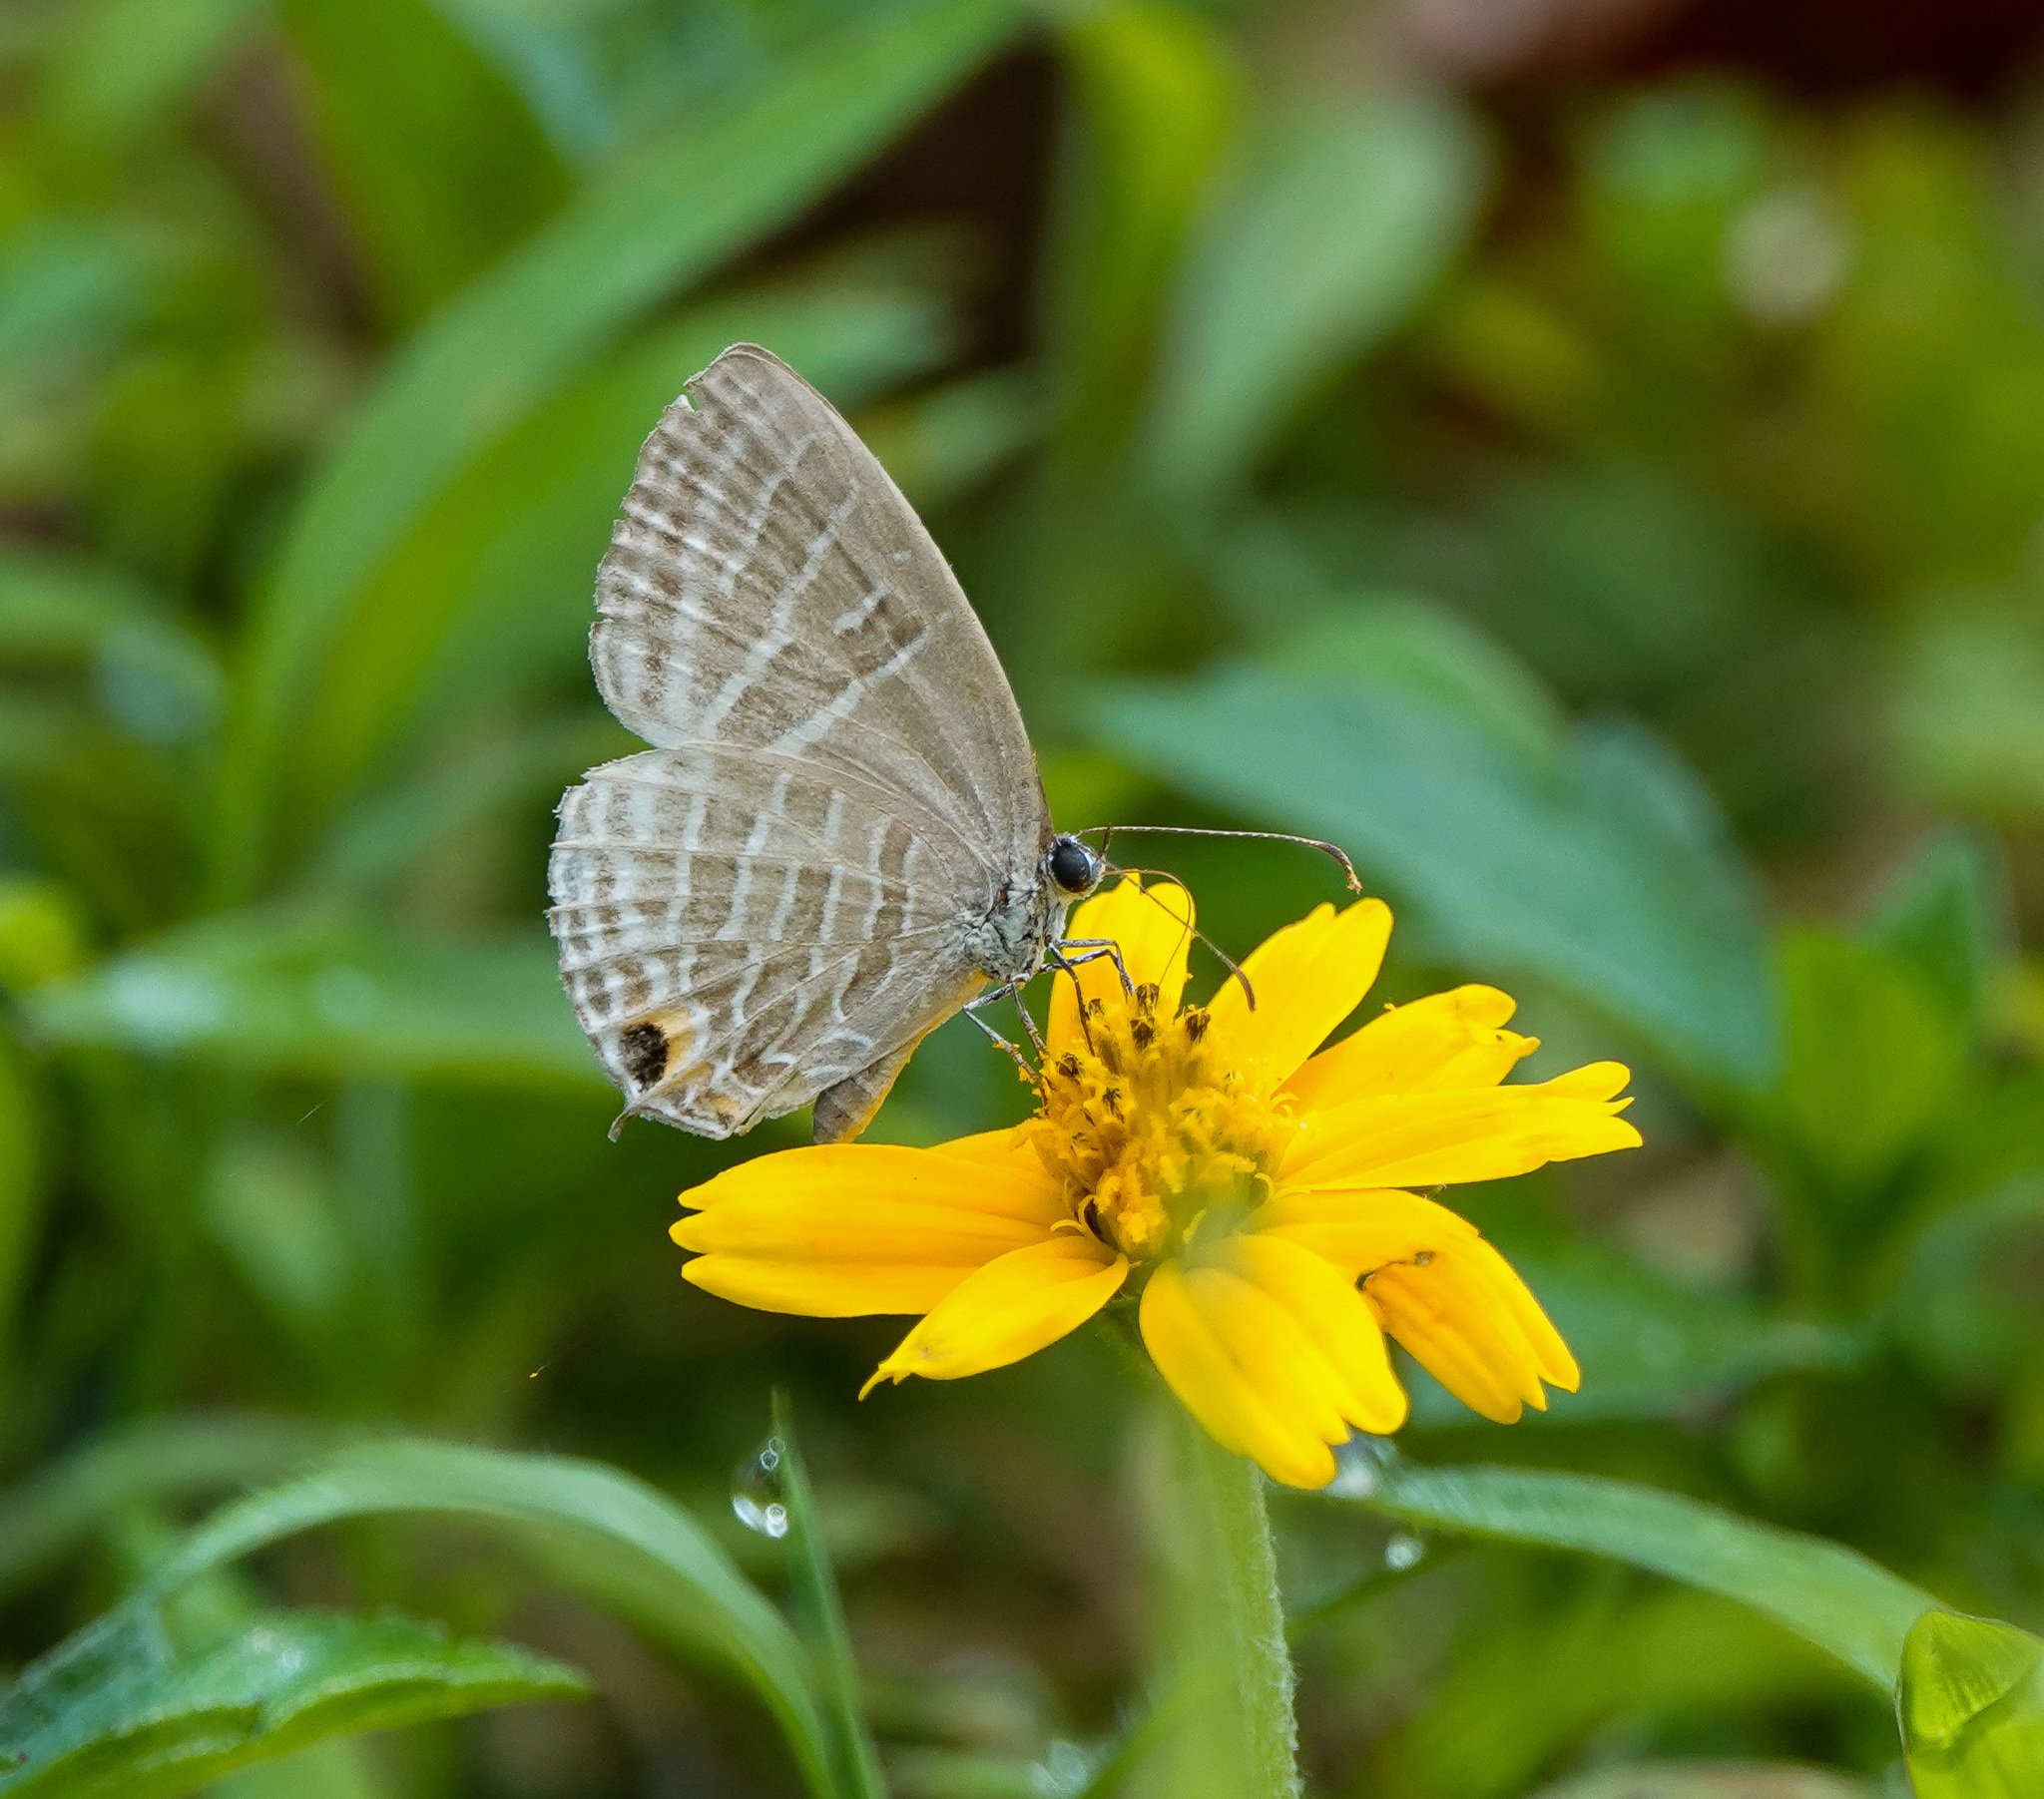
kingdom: Animalia
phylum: Arthropoda
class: Insecta
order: Lepidoptera
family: Lycaenidae
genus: Jamides
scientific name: Jamides celeno
